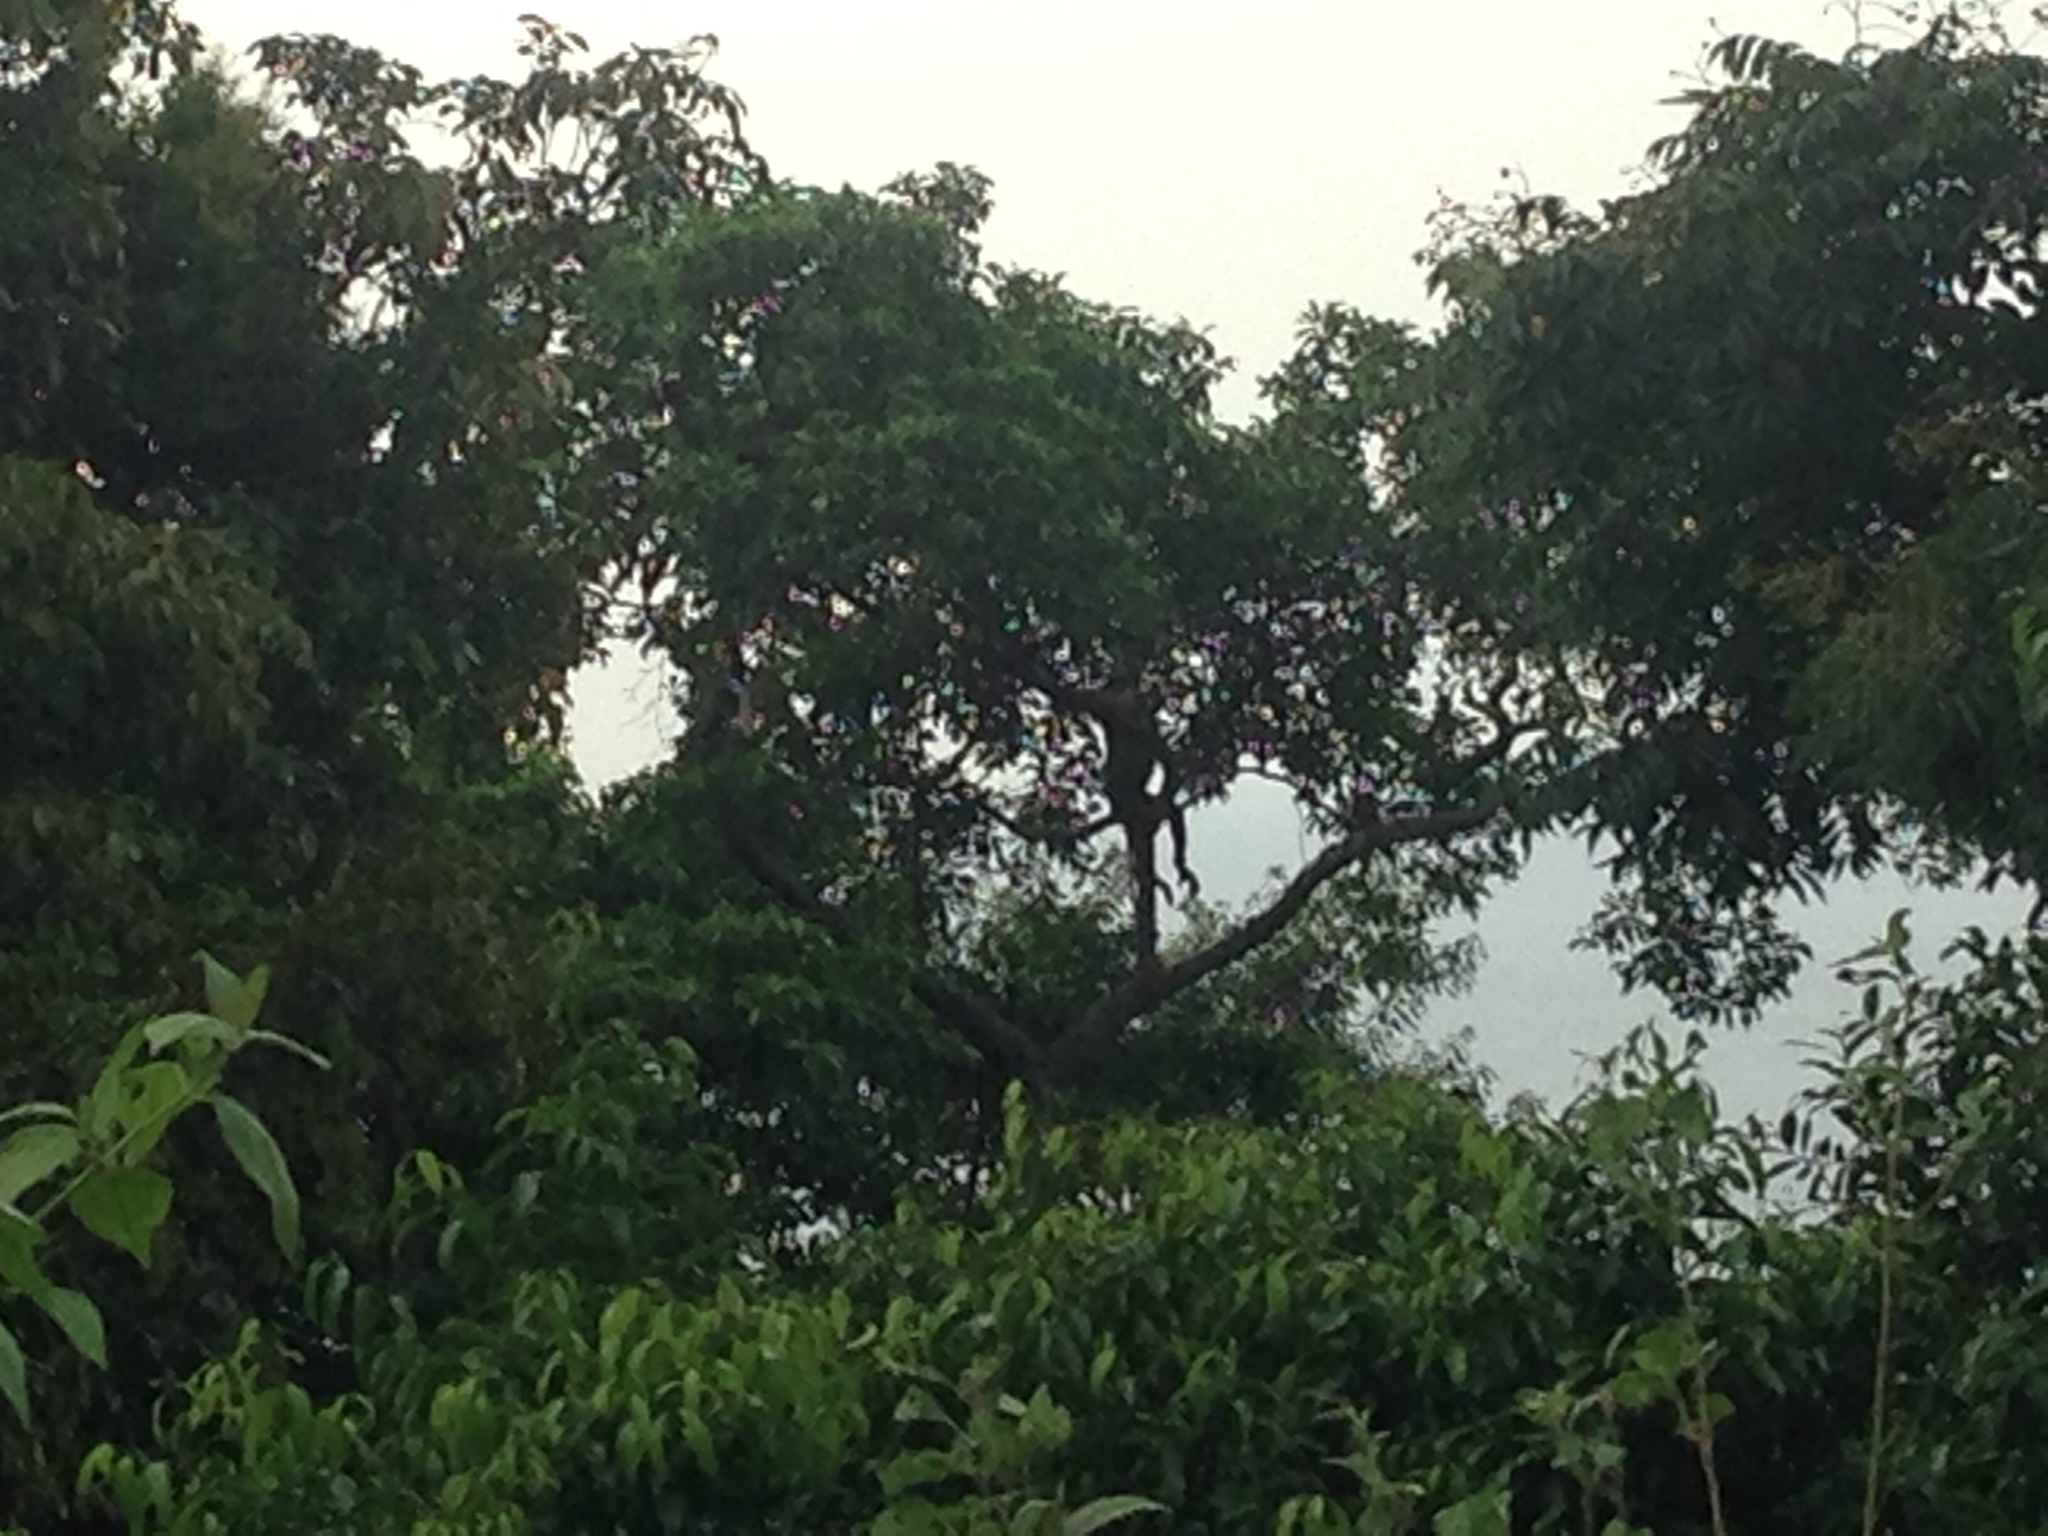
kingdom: Animalia
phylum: Chordata
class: Mammalia
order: Primates
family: Cercopithecidae
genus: Pygathrix
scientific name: Pygathrix nemaeus
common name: Red-shanked douc
